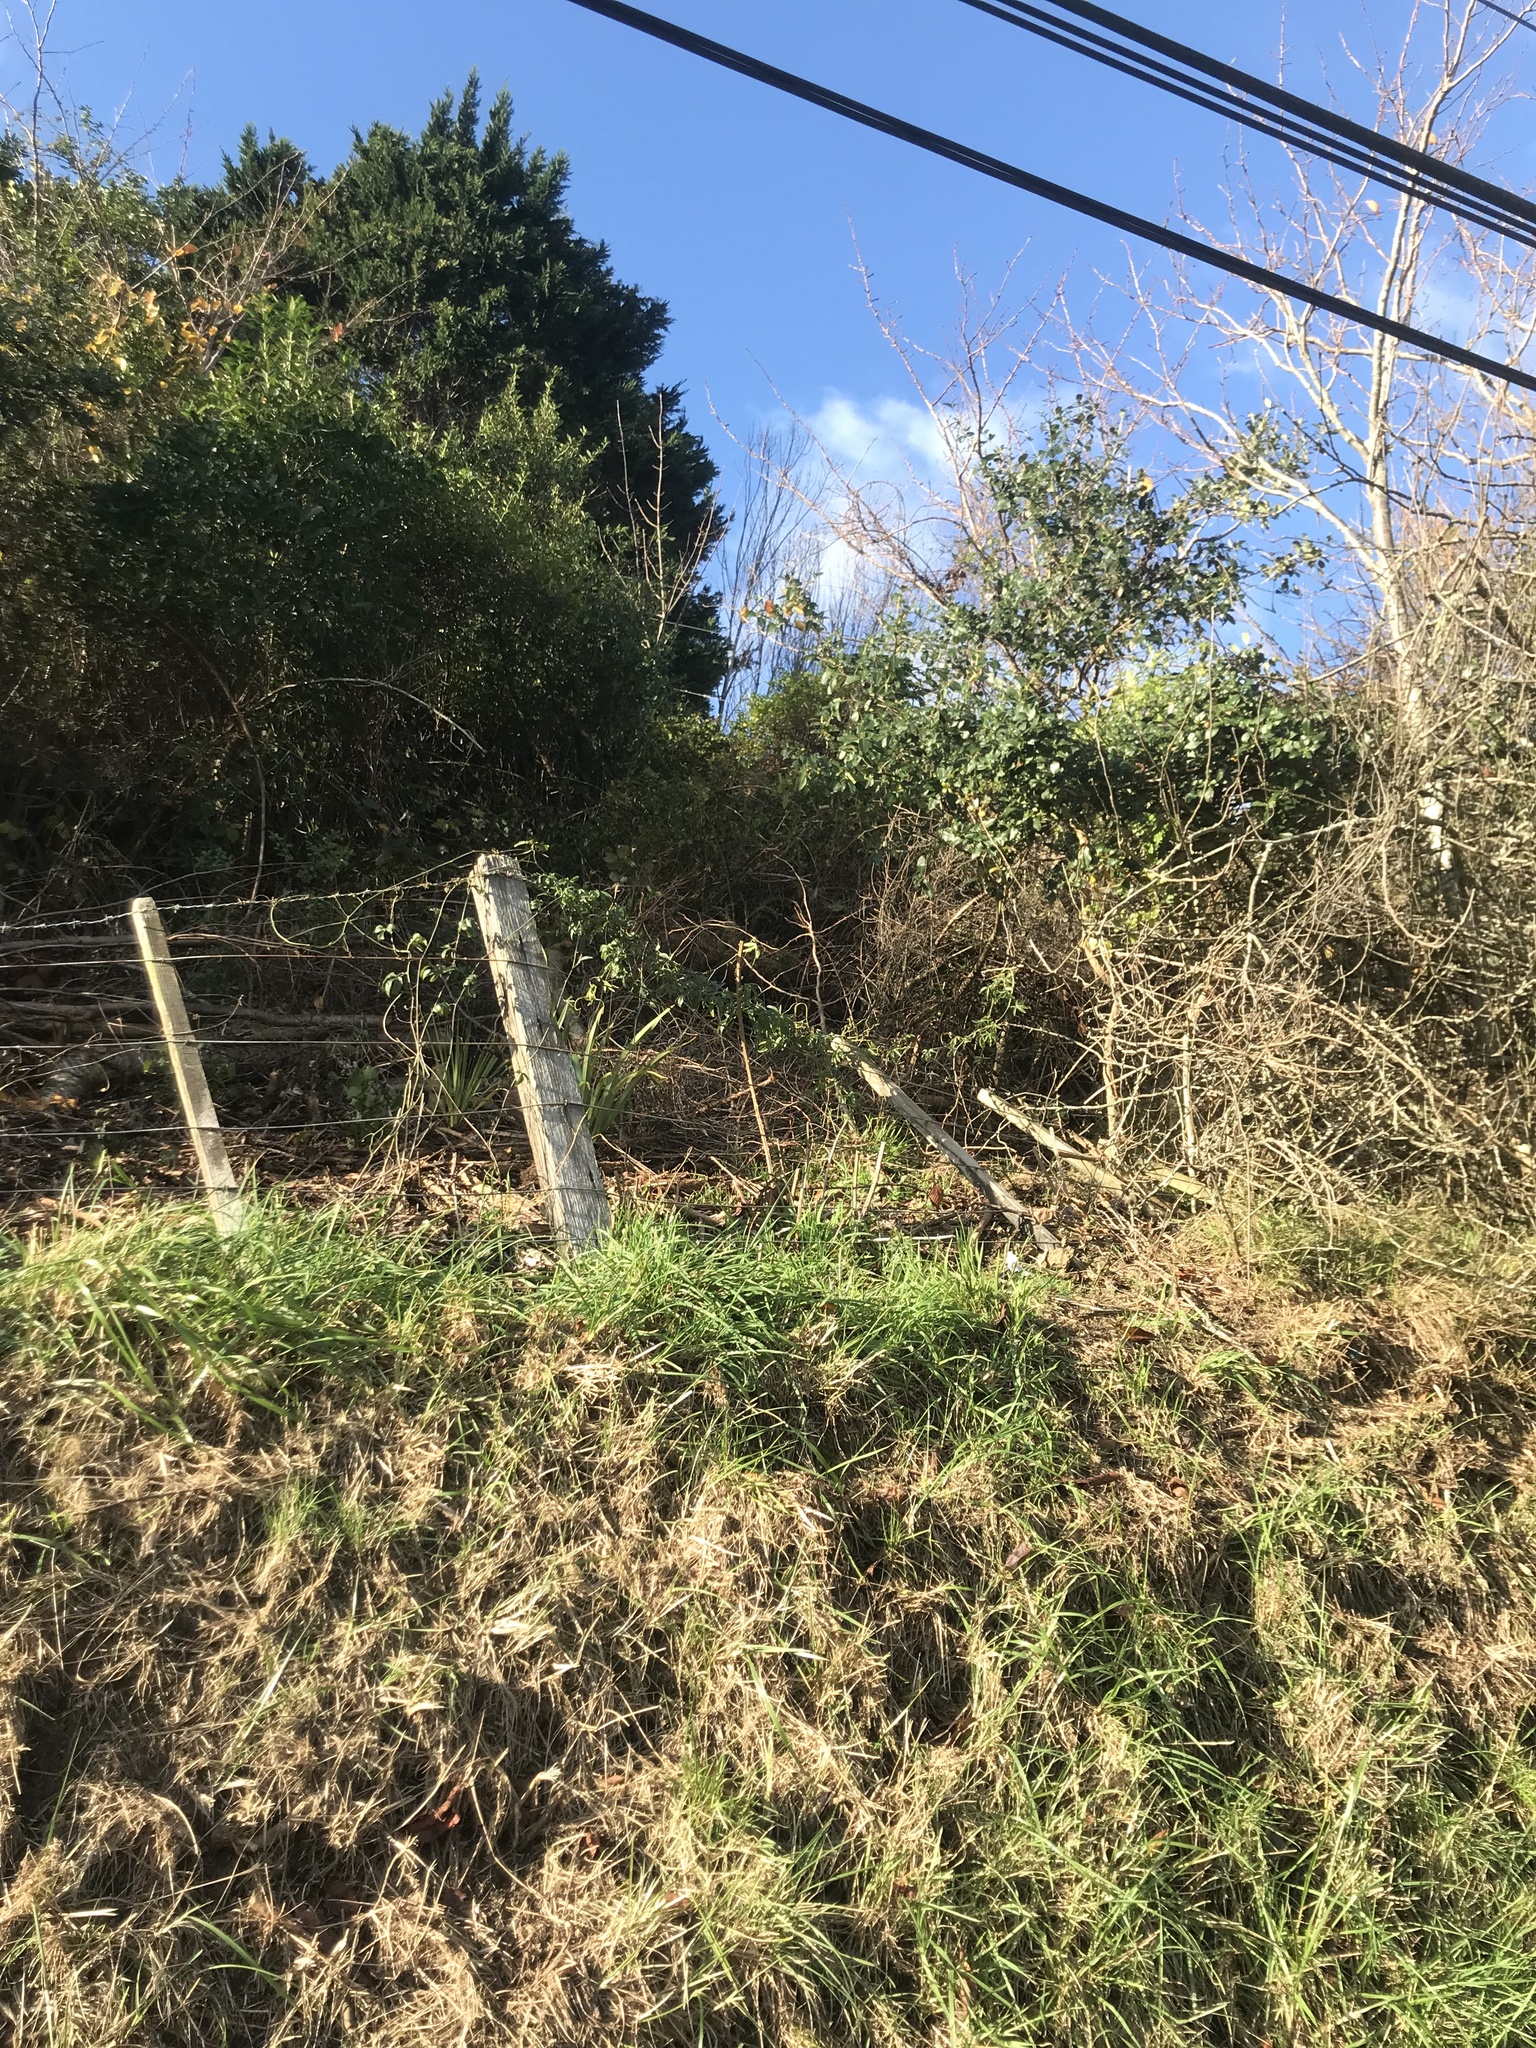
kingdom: Plantae
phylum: Tracheophyta
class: Magnoliopsida
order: Malpighiales
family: Passifloraceae
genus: Passiflora
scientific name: Passiflora caerulea
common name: Blue passionflower
